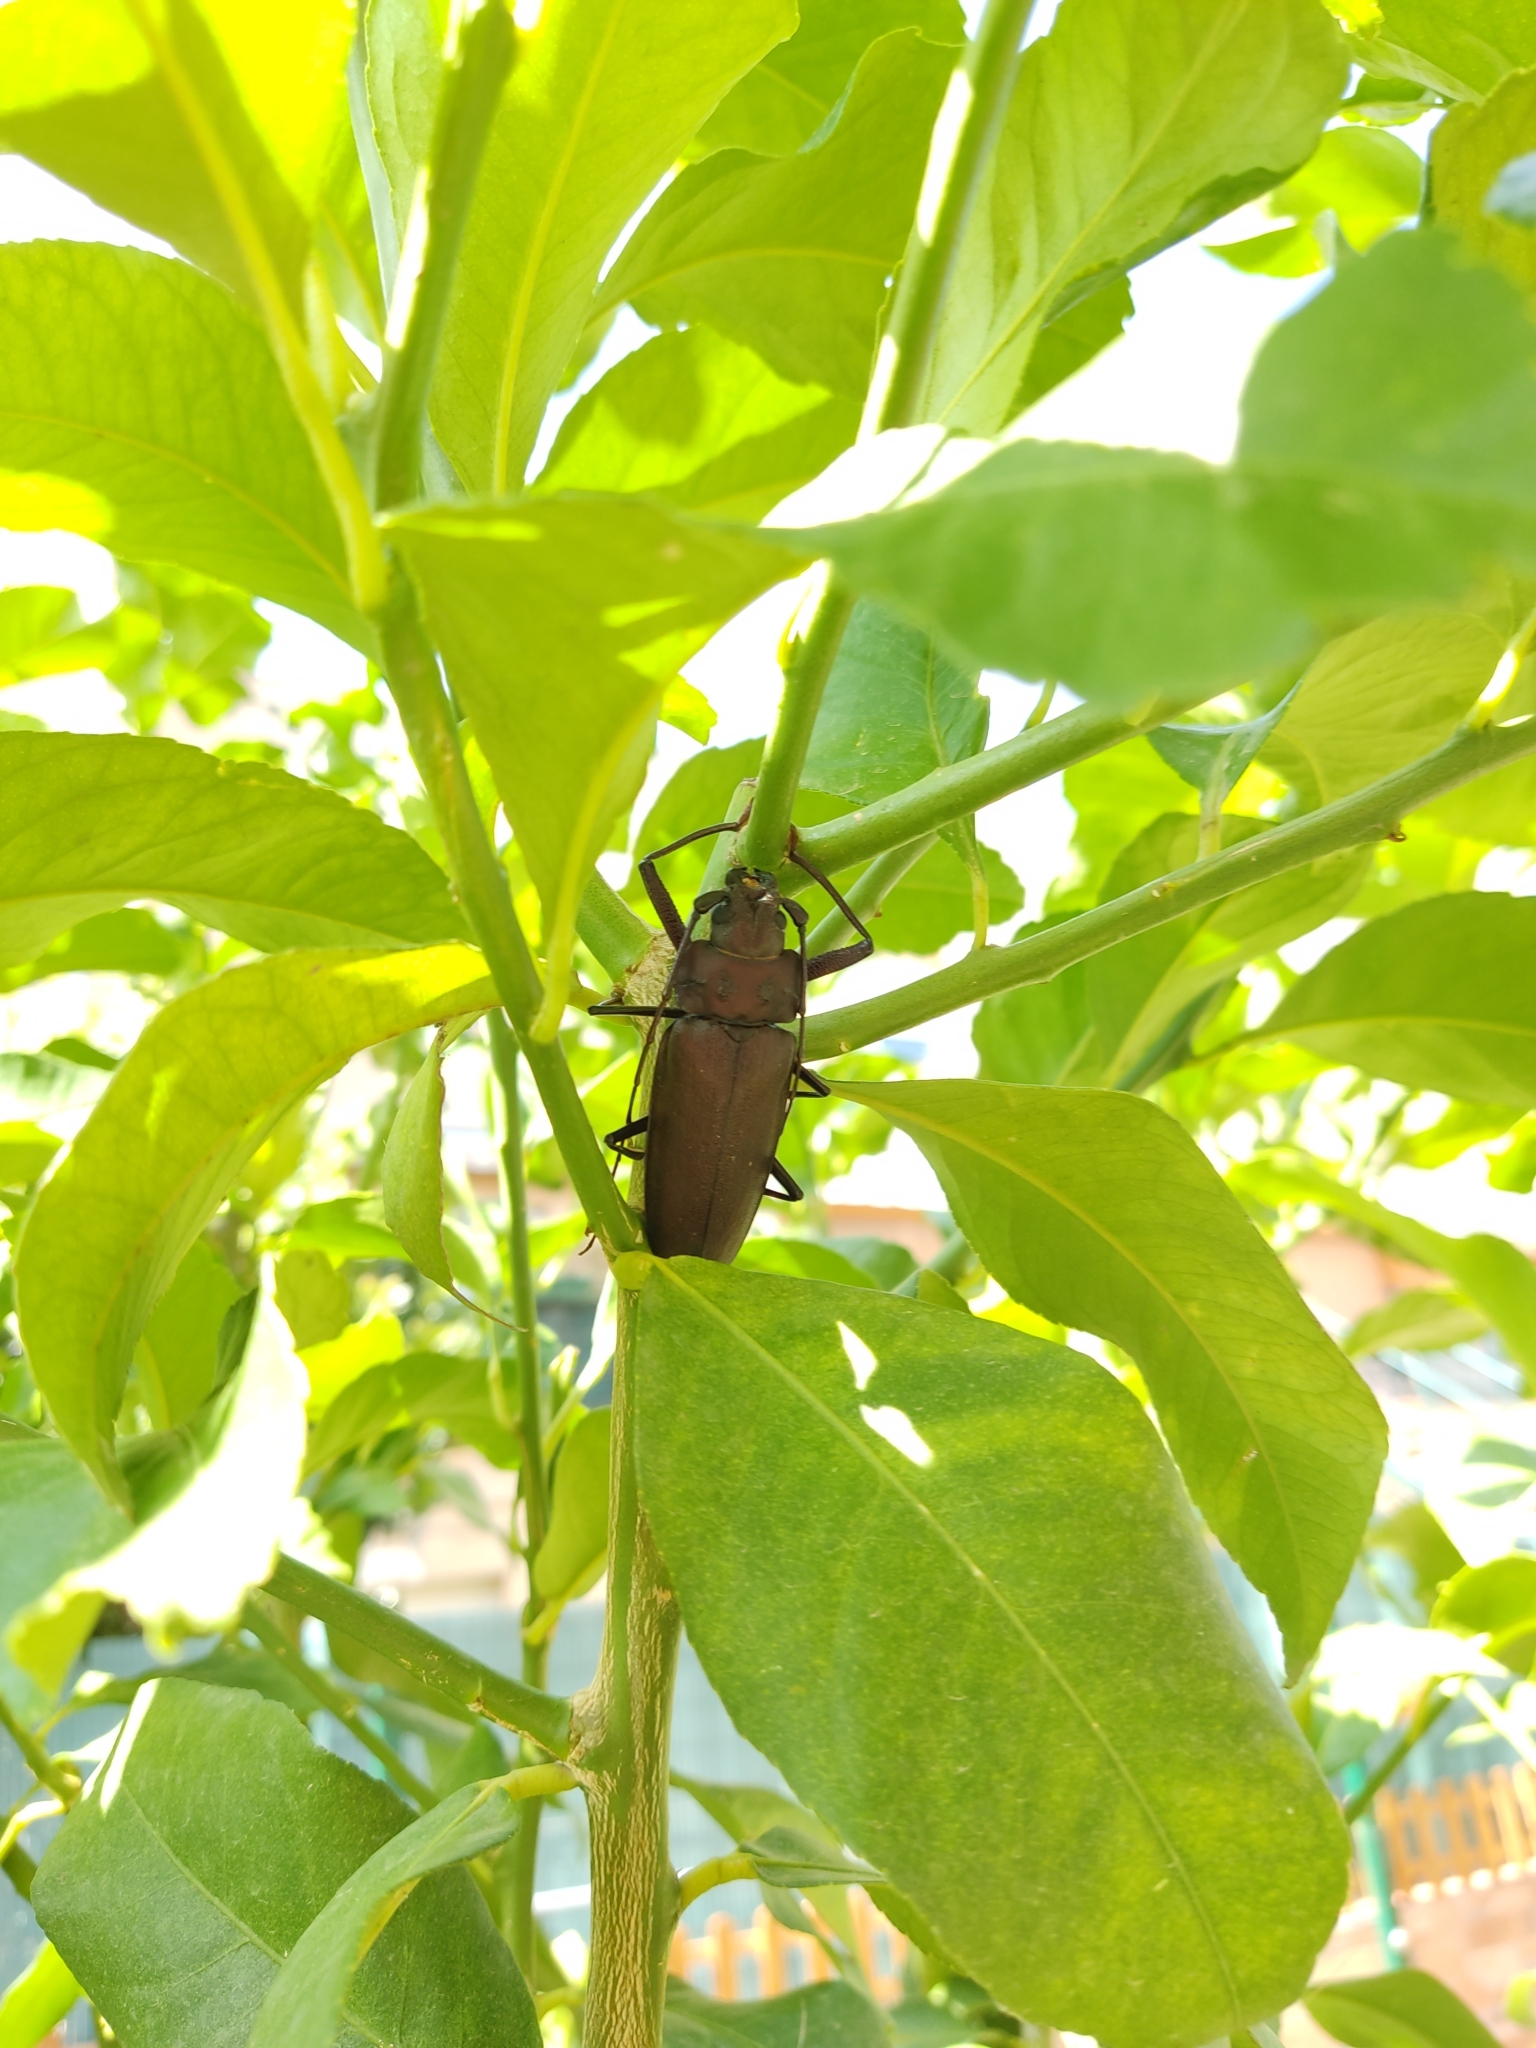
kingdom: Animalia
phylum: Arthropoda
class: Insecta
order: Coleoptera
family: Cerambycidae
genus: Ergates
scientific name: Ergates faber
